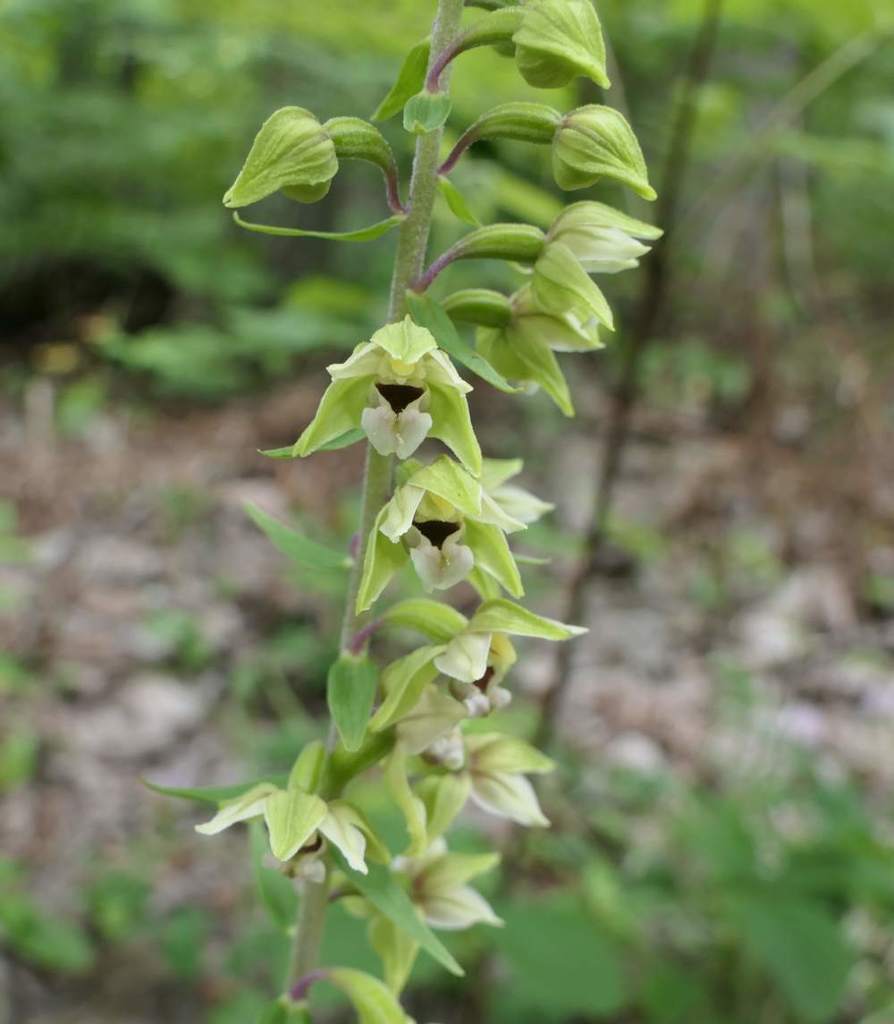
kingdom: Plantae
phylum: Tracheophyta
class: Liliopsida
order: Asparagales
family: Orchidaceae
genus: Epipactis
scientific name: Epipactis helleborine
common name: Broad-leaved helleborine
